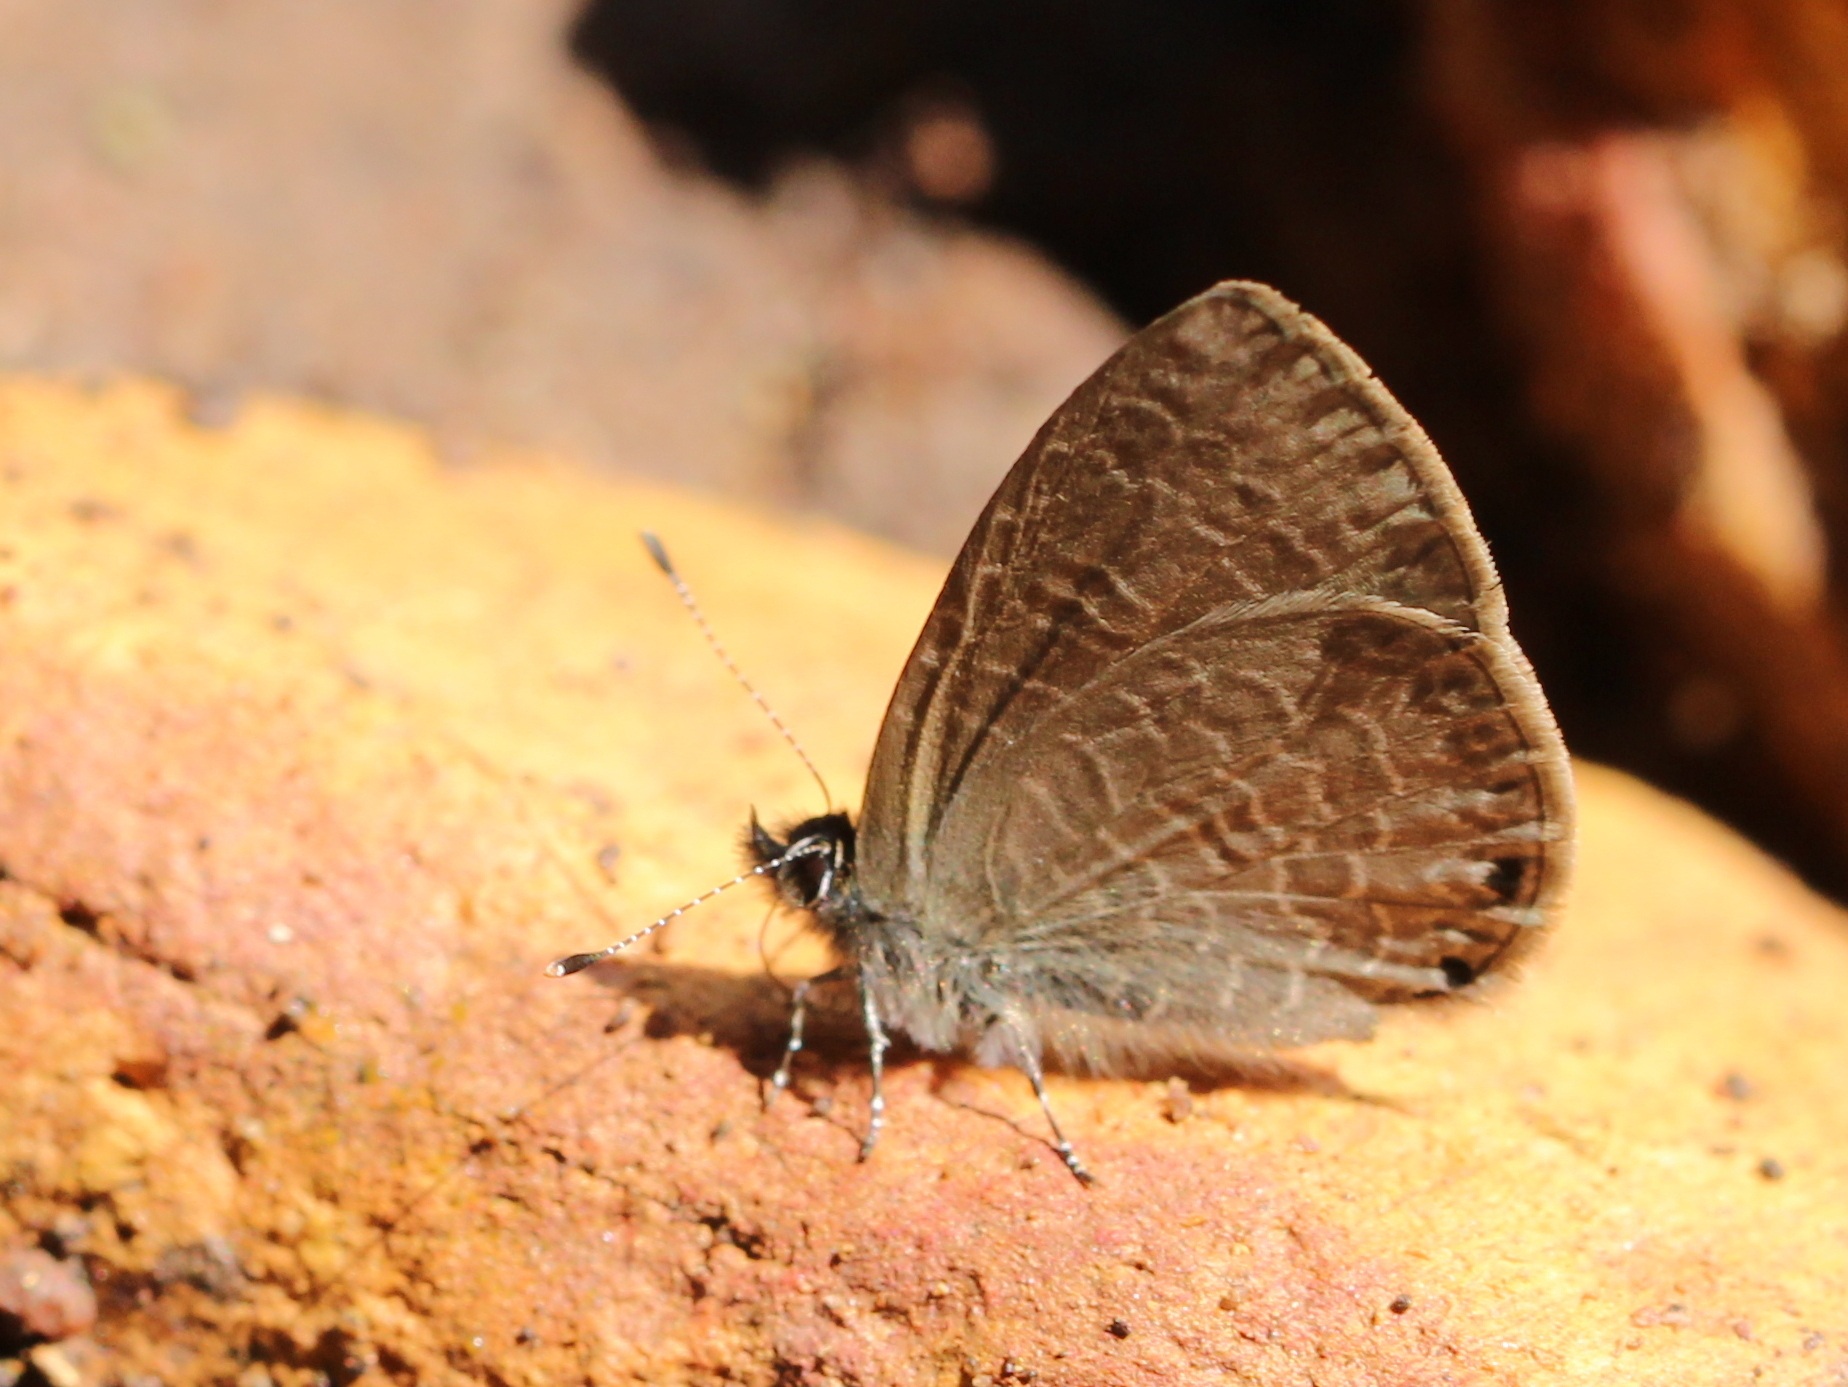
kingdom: Animalia
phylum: Arthropoda
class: Insecta
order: Lepidoptera
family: Lycaenidae
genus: Petrelaea
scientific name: Petrelaea dana
